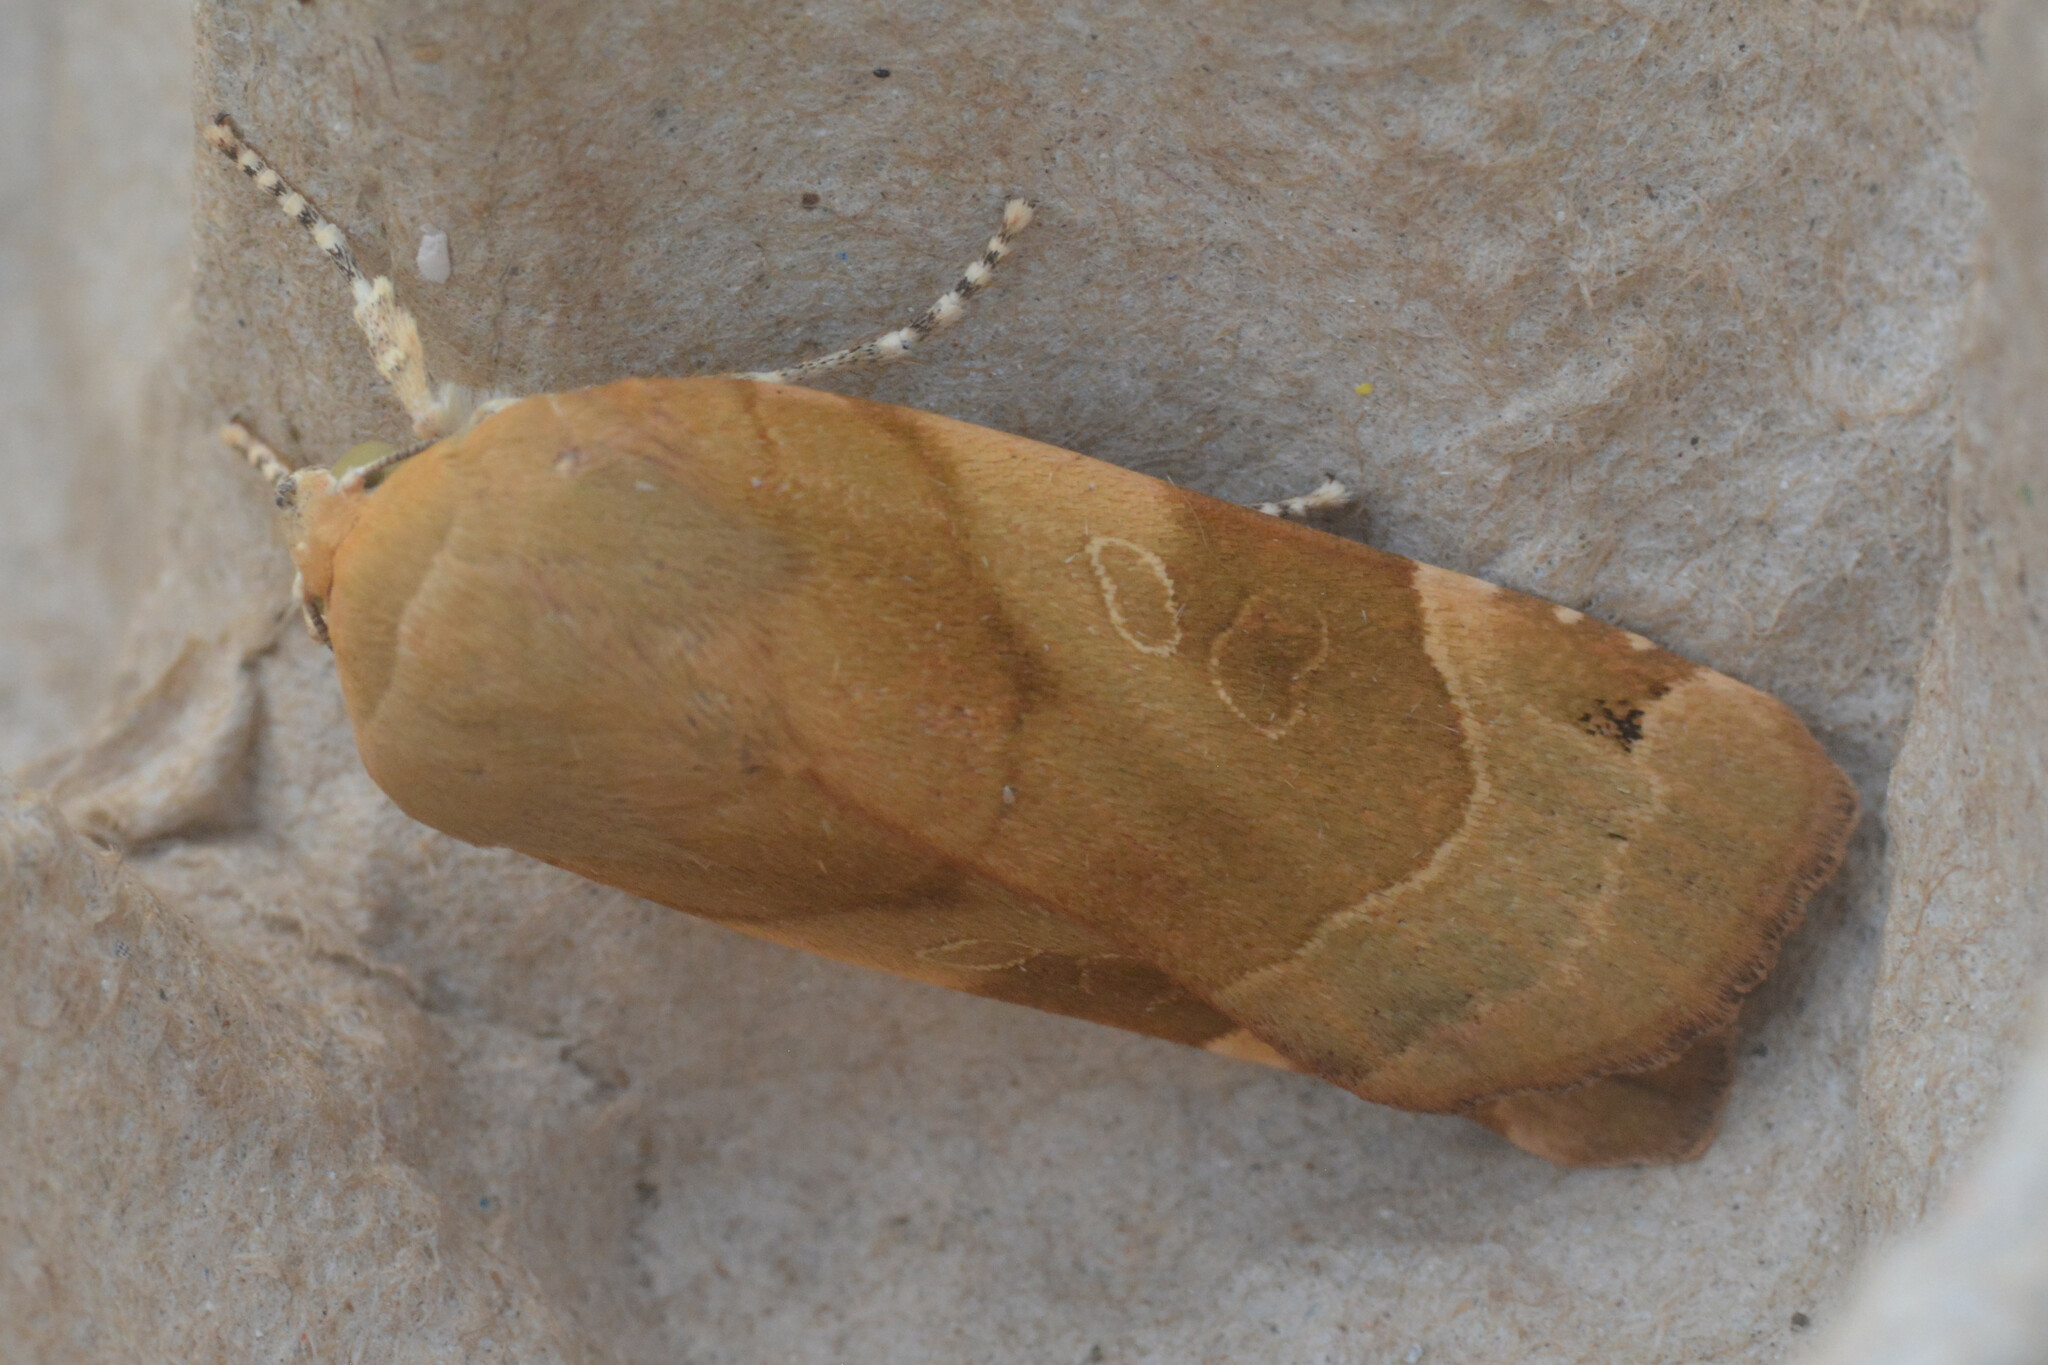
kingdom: Animalia
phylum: Arthropoda
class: Insecta
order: Lepidoptera
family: Noctuidae
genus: Noctua
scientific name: Noctua fimbriata
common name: Broad-bordered yellow underwing
